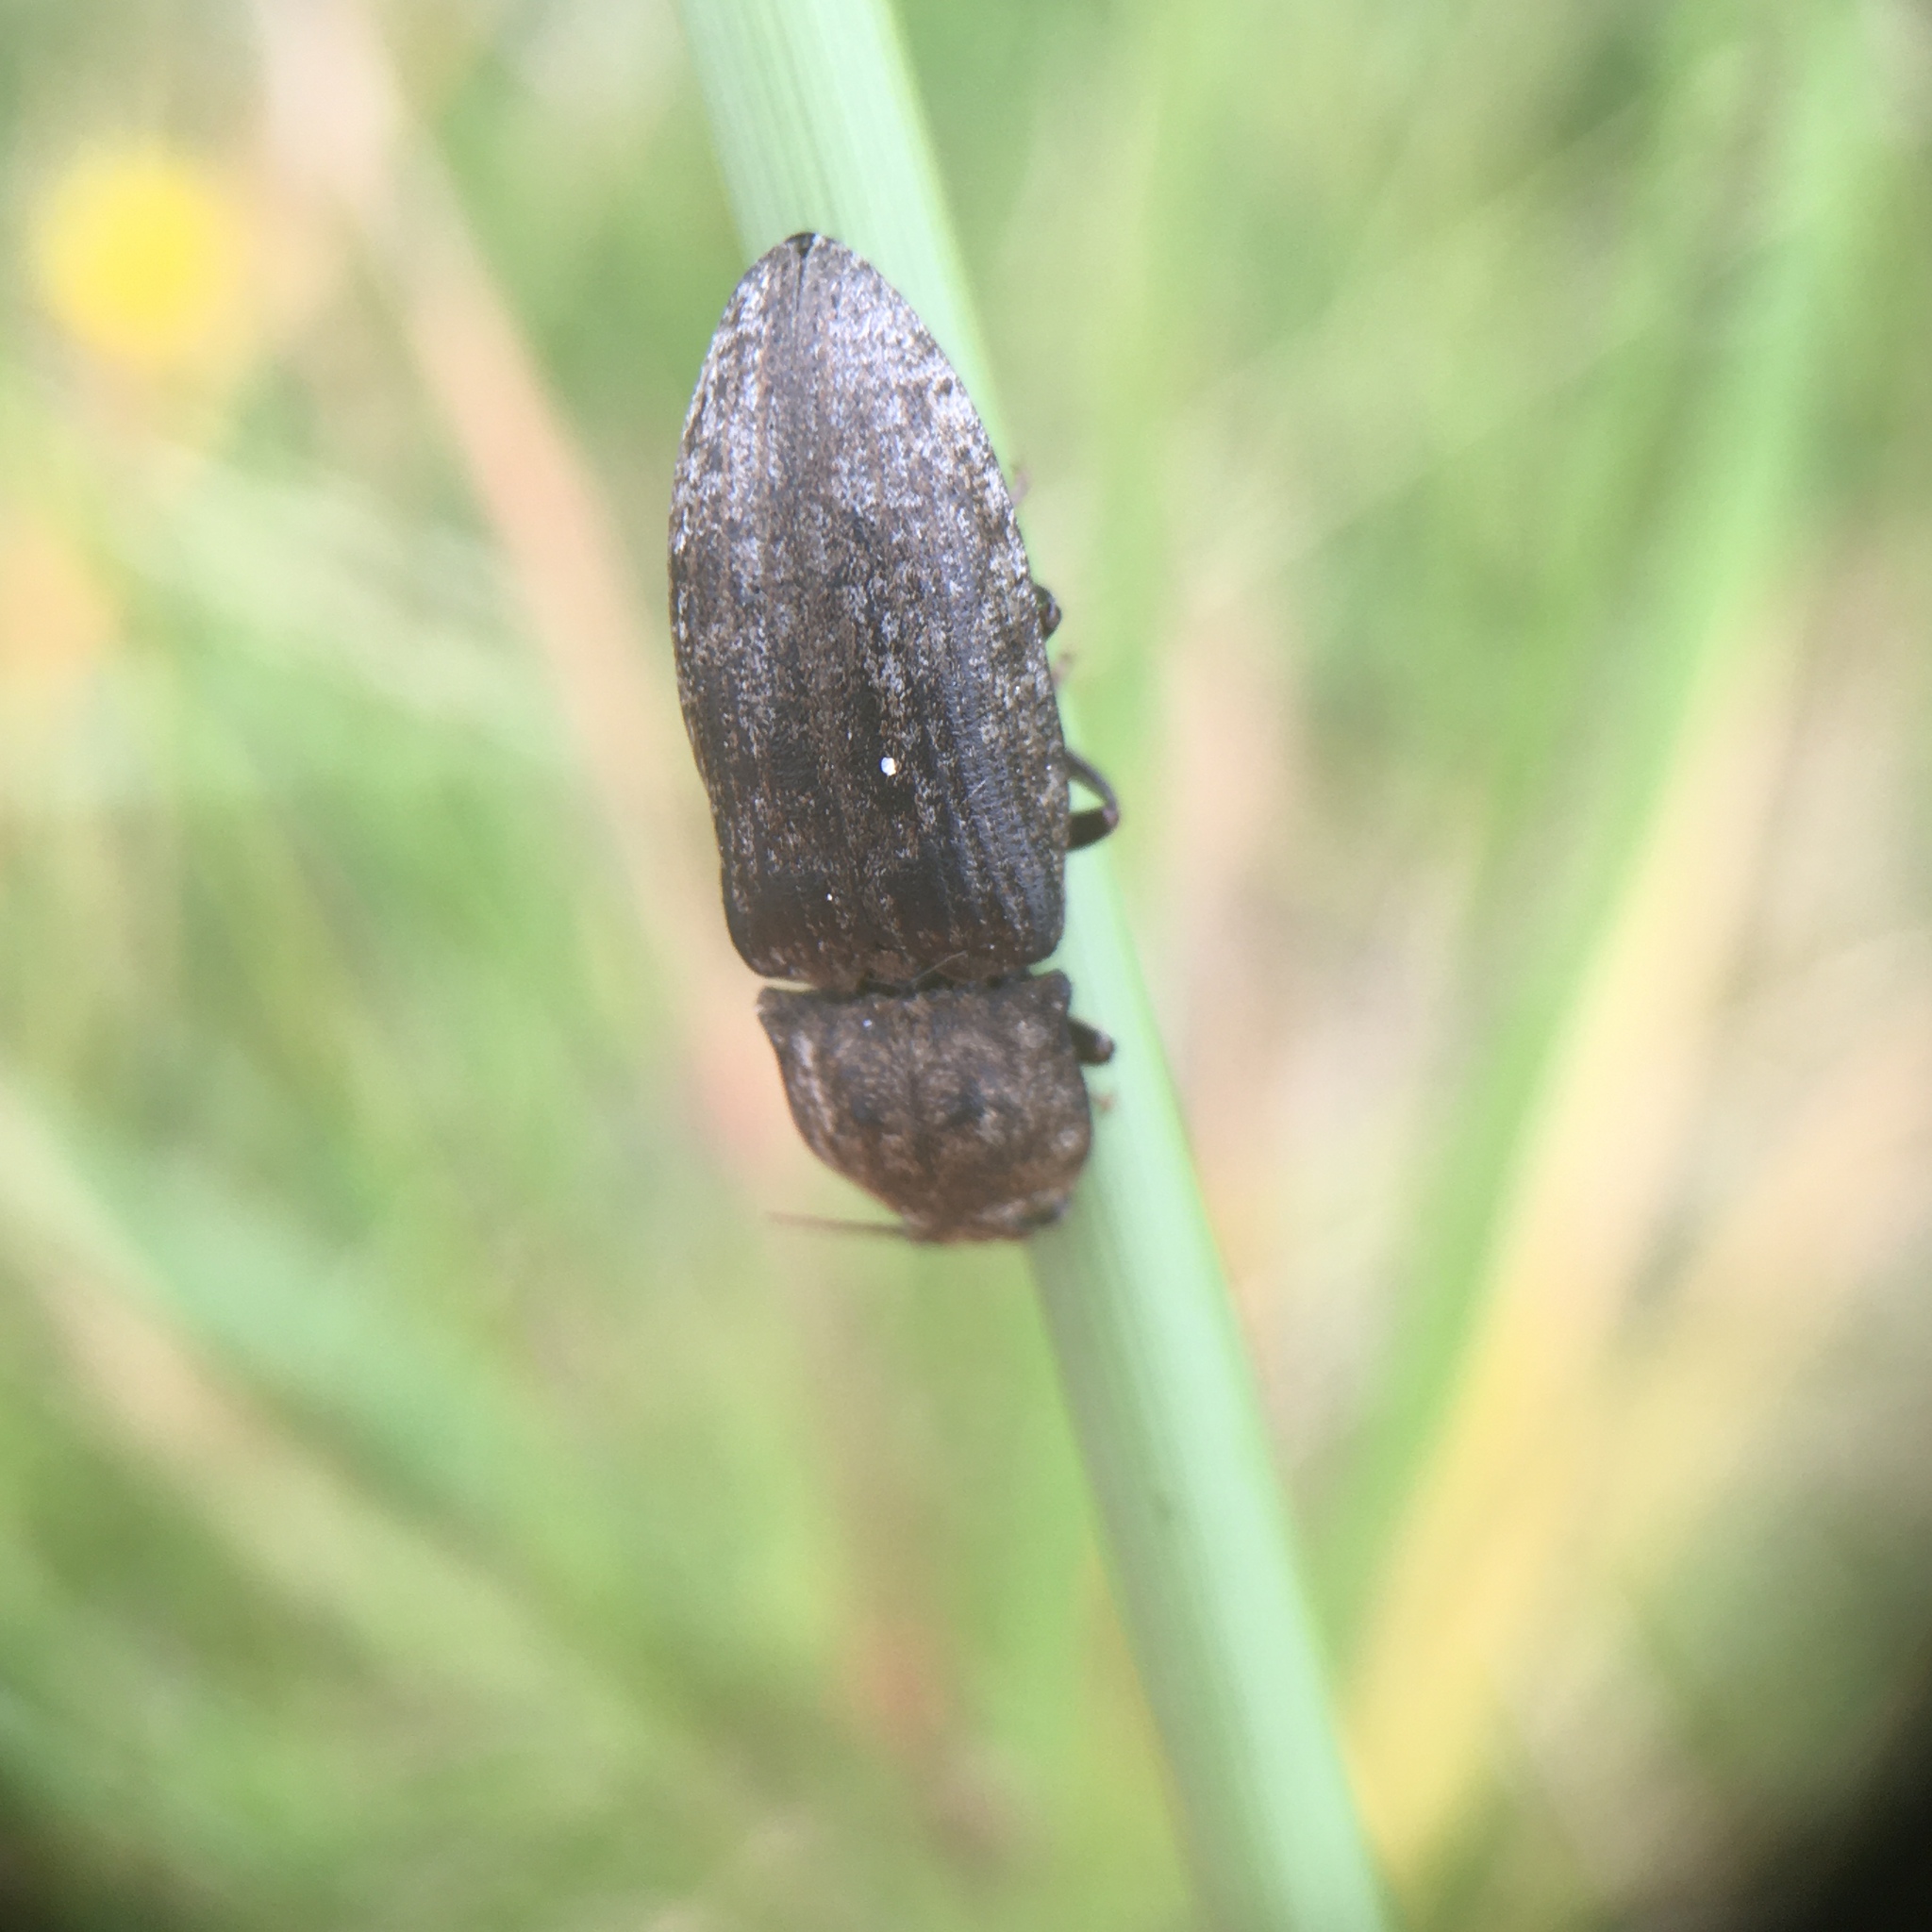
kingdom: Animalia
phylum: Arthropoda
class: Insecta
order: Coleoptera
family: Elateridae
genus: Agrypnus
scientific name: Agrypnus murinus
